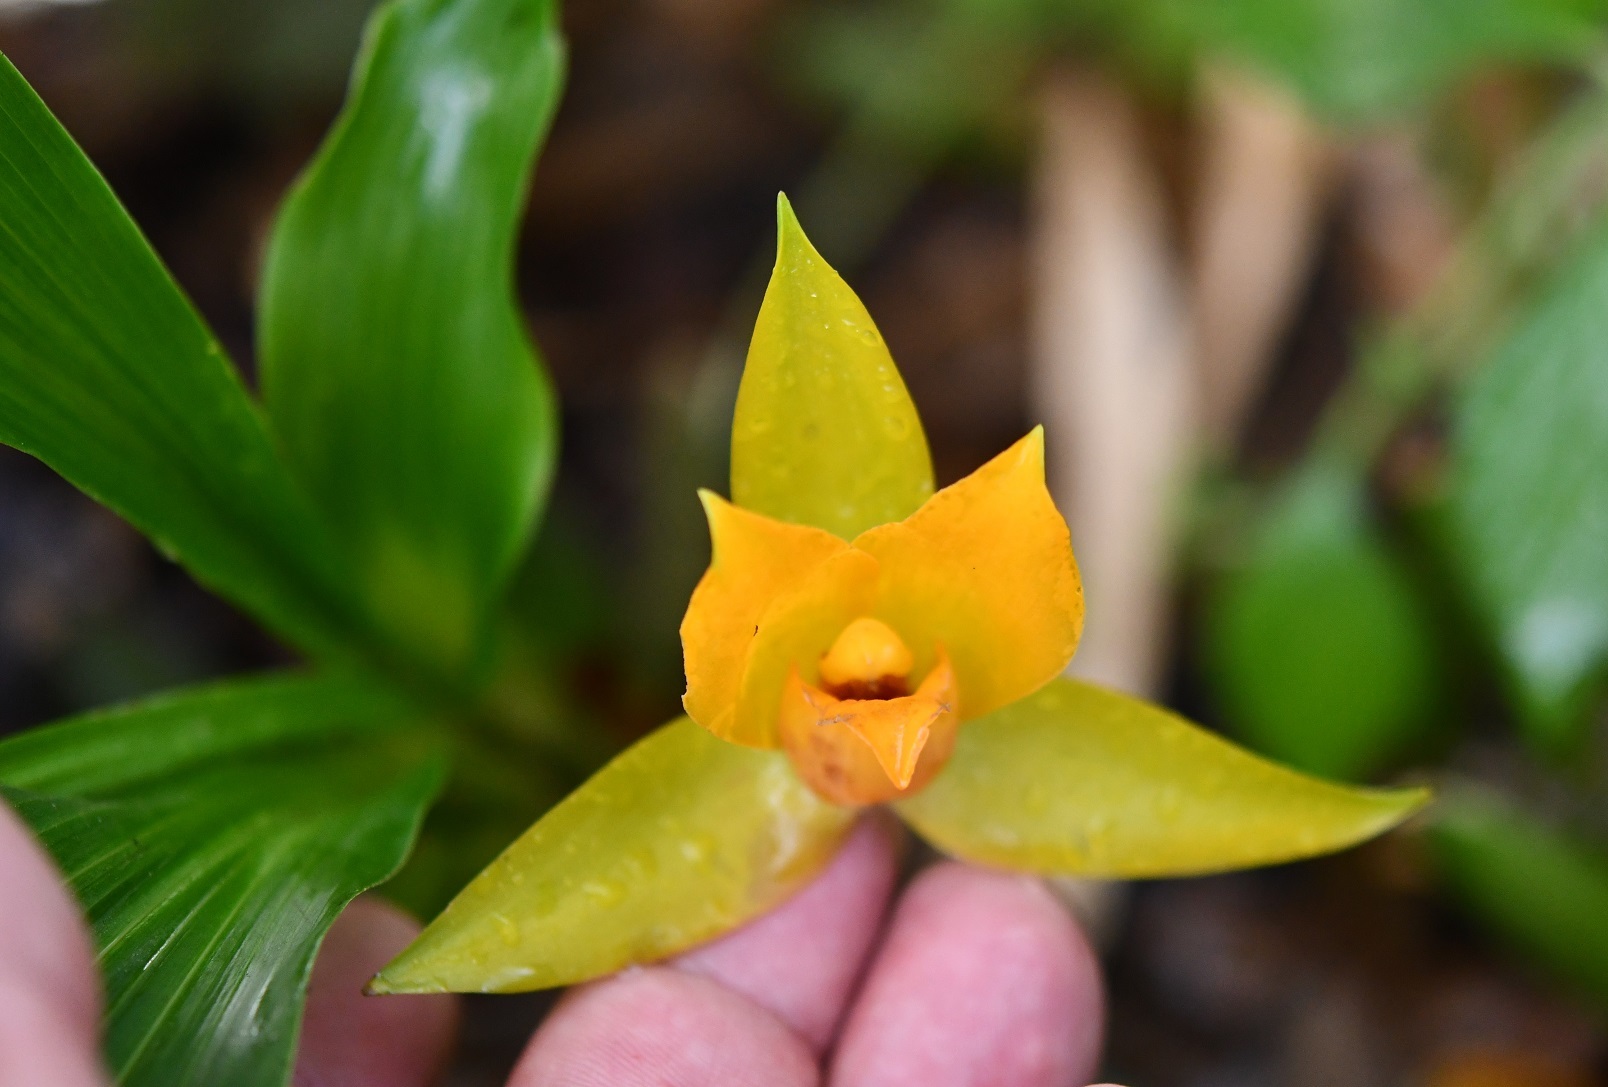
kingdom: Plantae
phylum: Tracheophyta
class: Liliopsida
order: Asparagales
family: Orchidaceae
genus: Lycaste
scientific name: Lycaste cruenta
